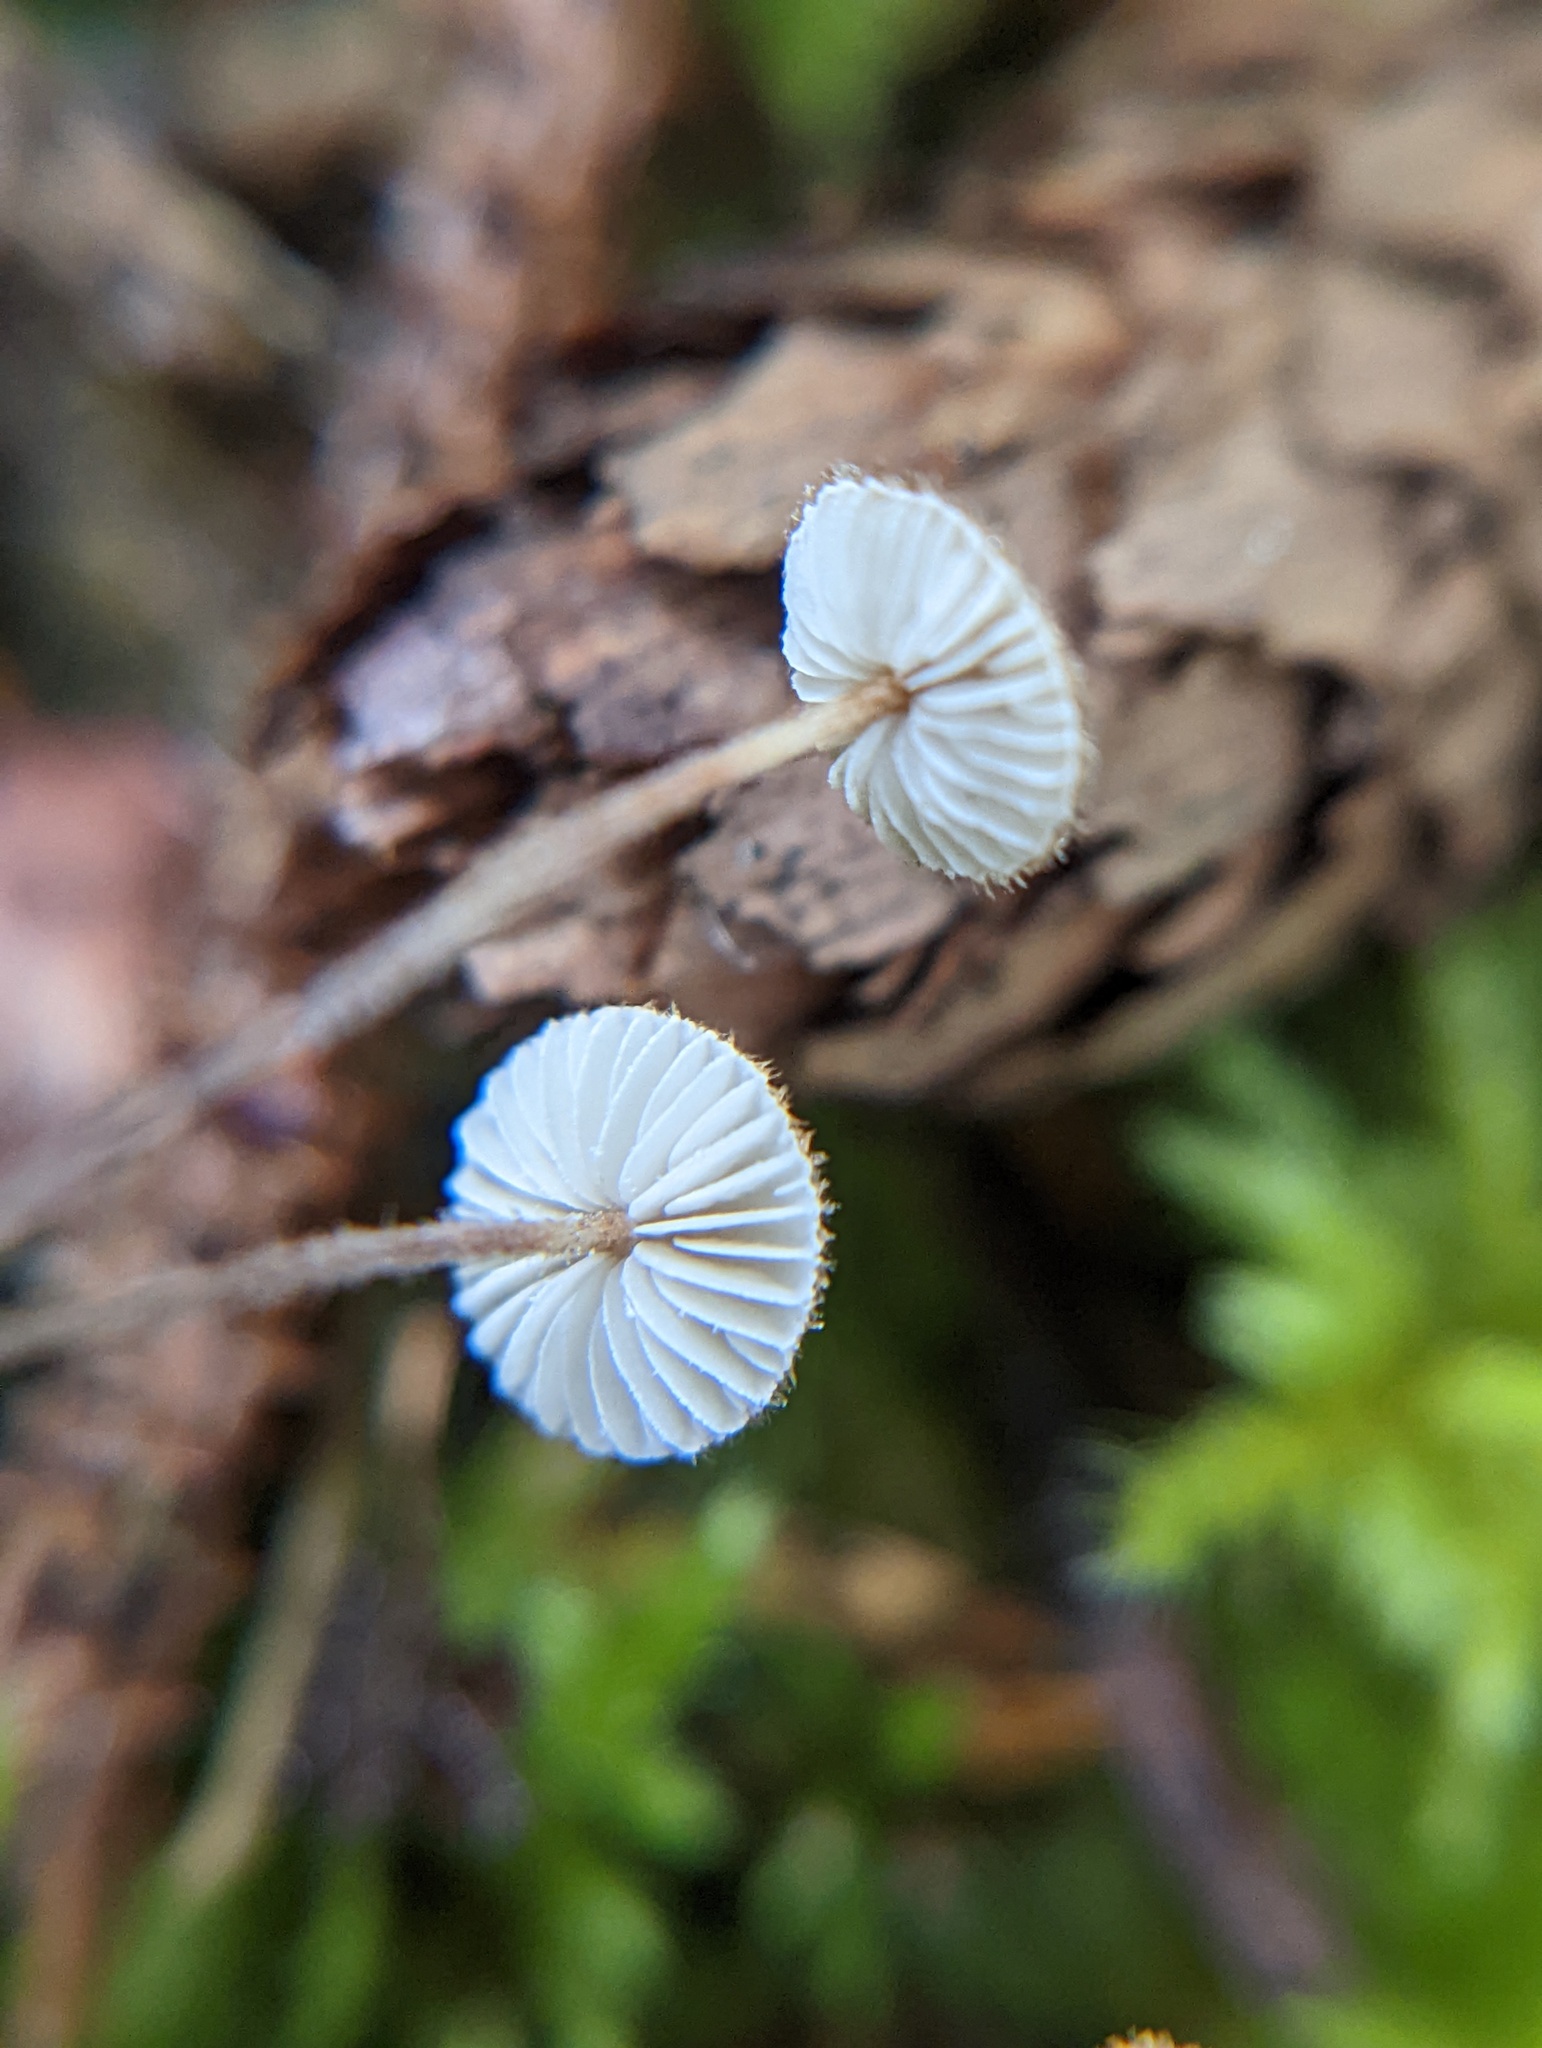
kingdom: Fungi
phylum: Basidiomycota
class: Agaricomycetes
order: Agaricales
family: Marasmiaceae
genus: Crinipellis
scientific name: Crinipellis piceae
